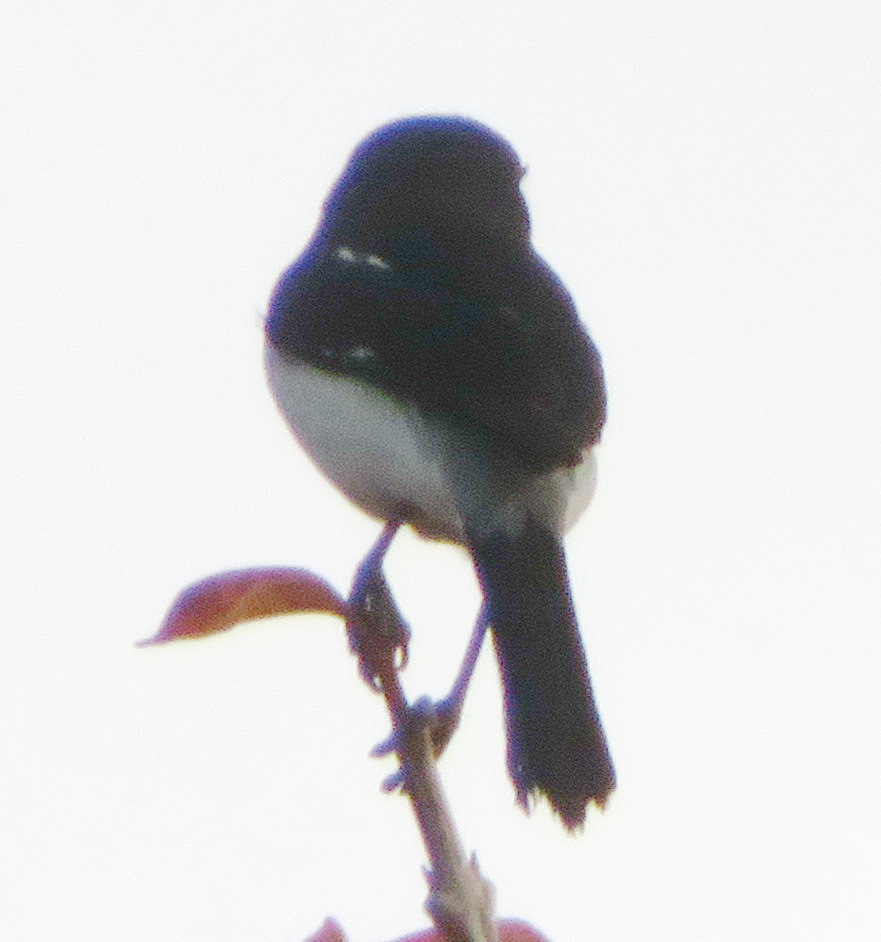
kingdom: Animalia
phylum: Chordata
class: Aves
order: Passeriformes
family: Laniidae
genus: Lanius
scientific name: Lanius collaris
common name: Southern fiscal
